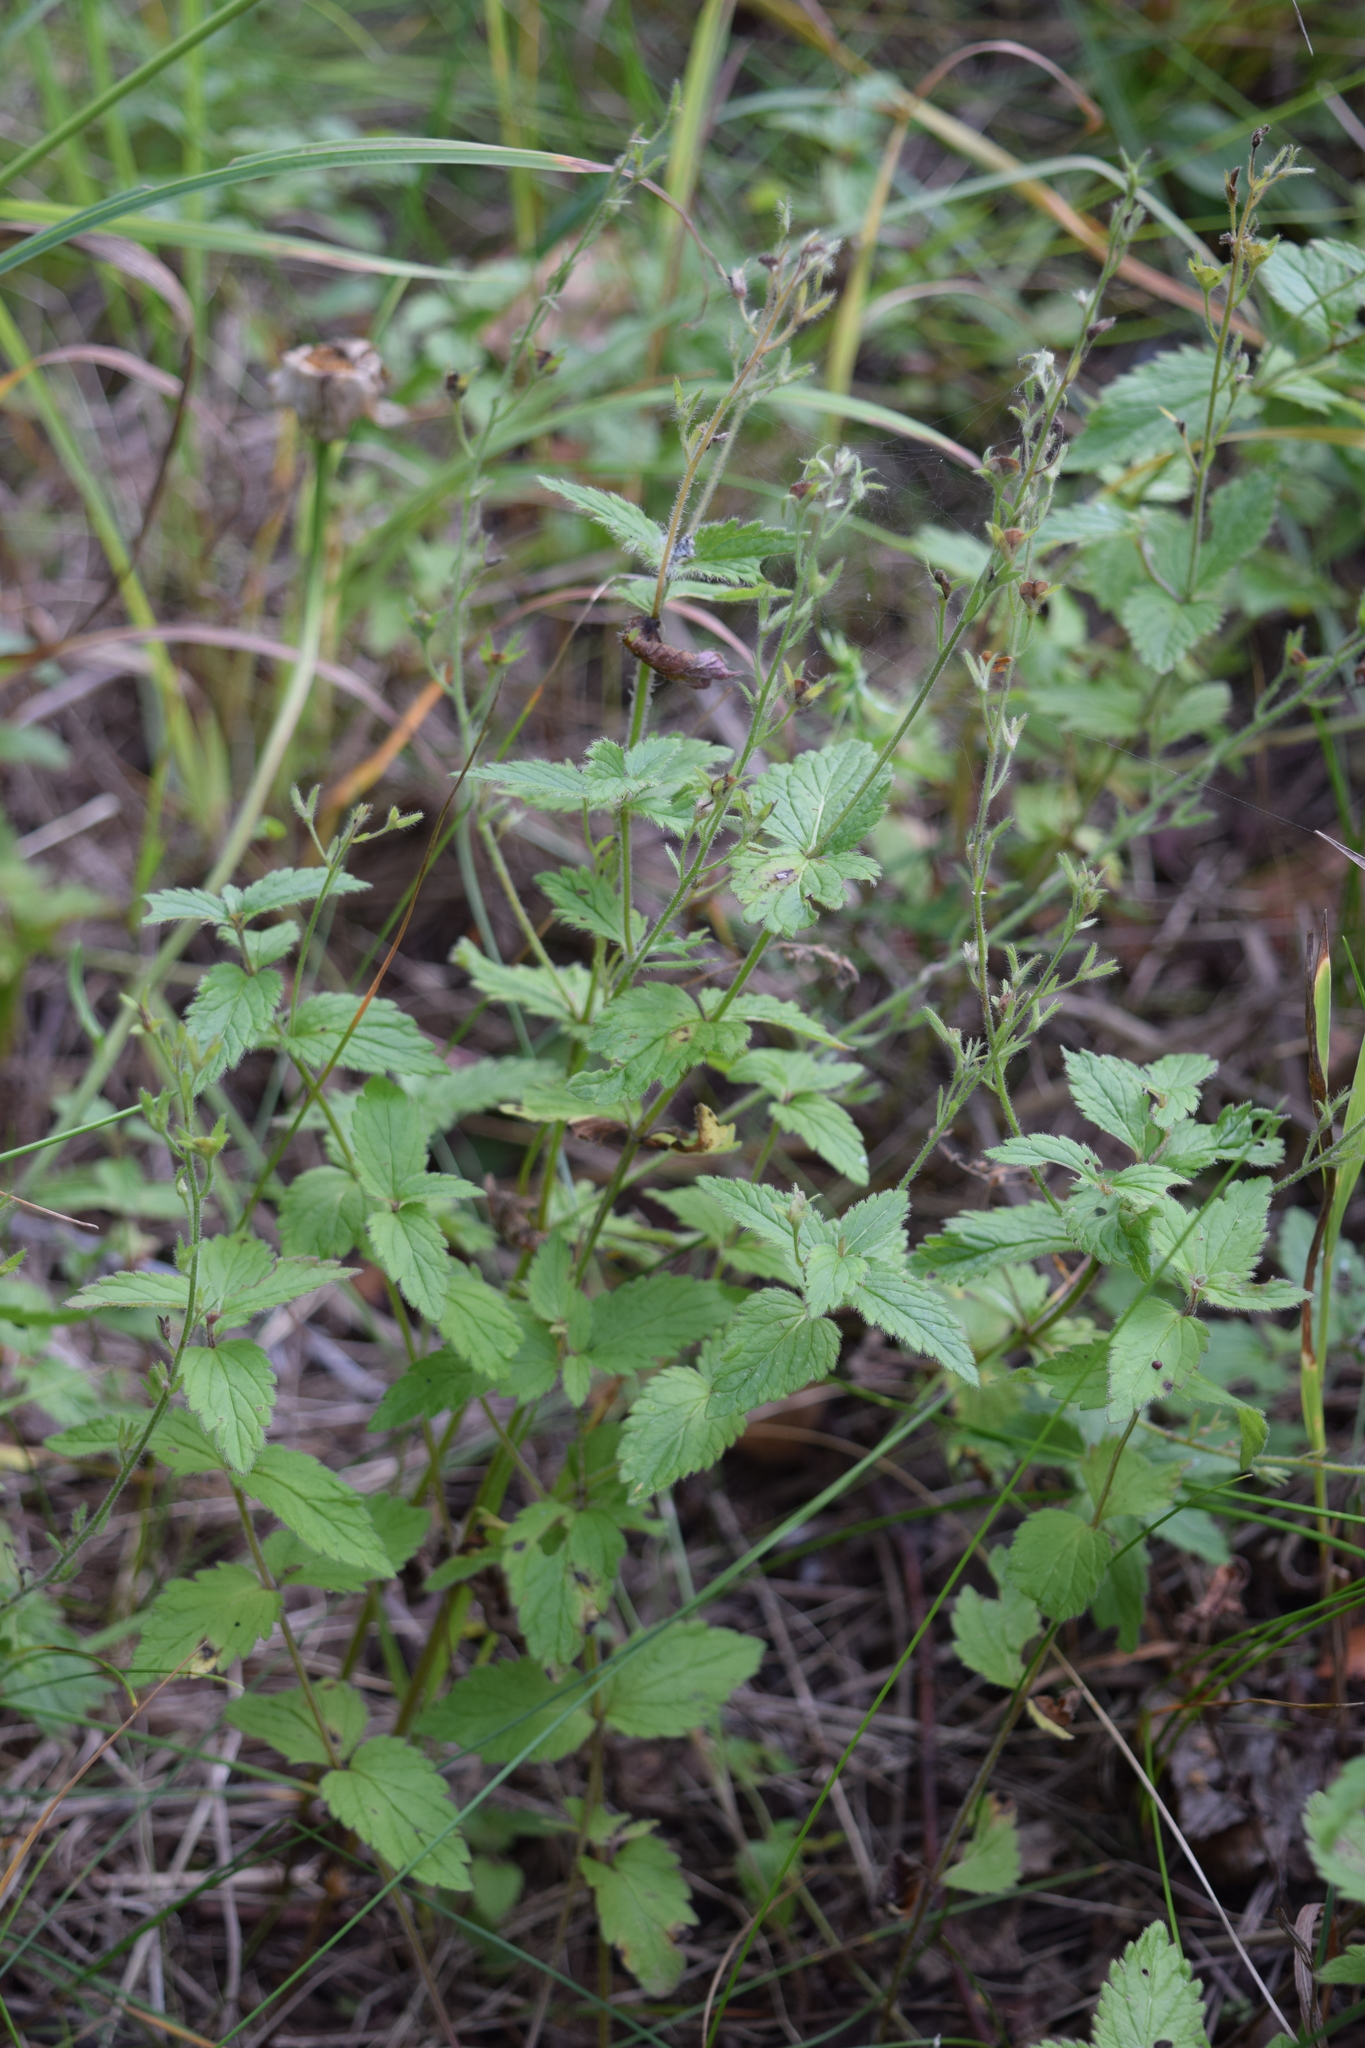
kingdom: Plantae
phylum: Tracheophyta
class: Magnoliopsida
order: Lamiales
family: Plantaginaceae
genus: Veronica
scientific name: Veronica chamaedrys
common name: Germander speedwell
